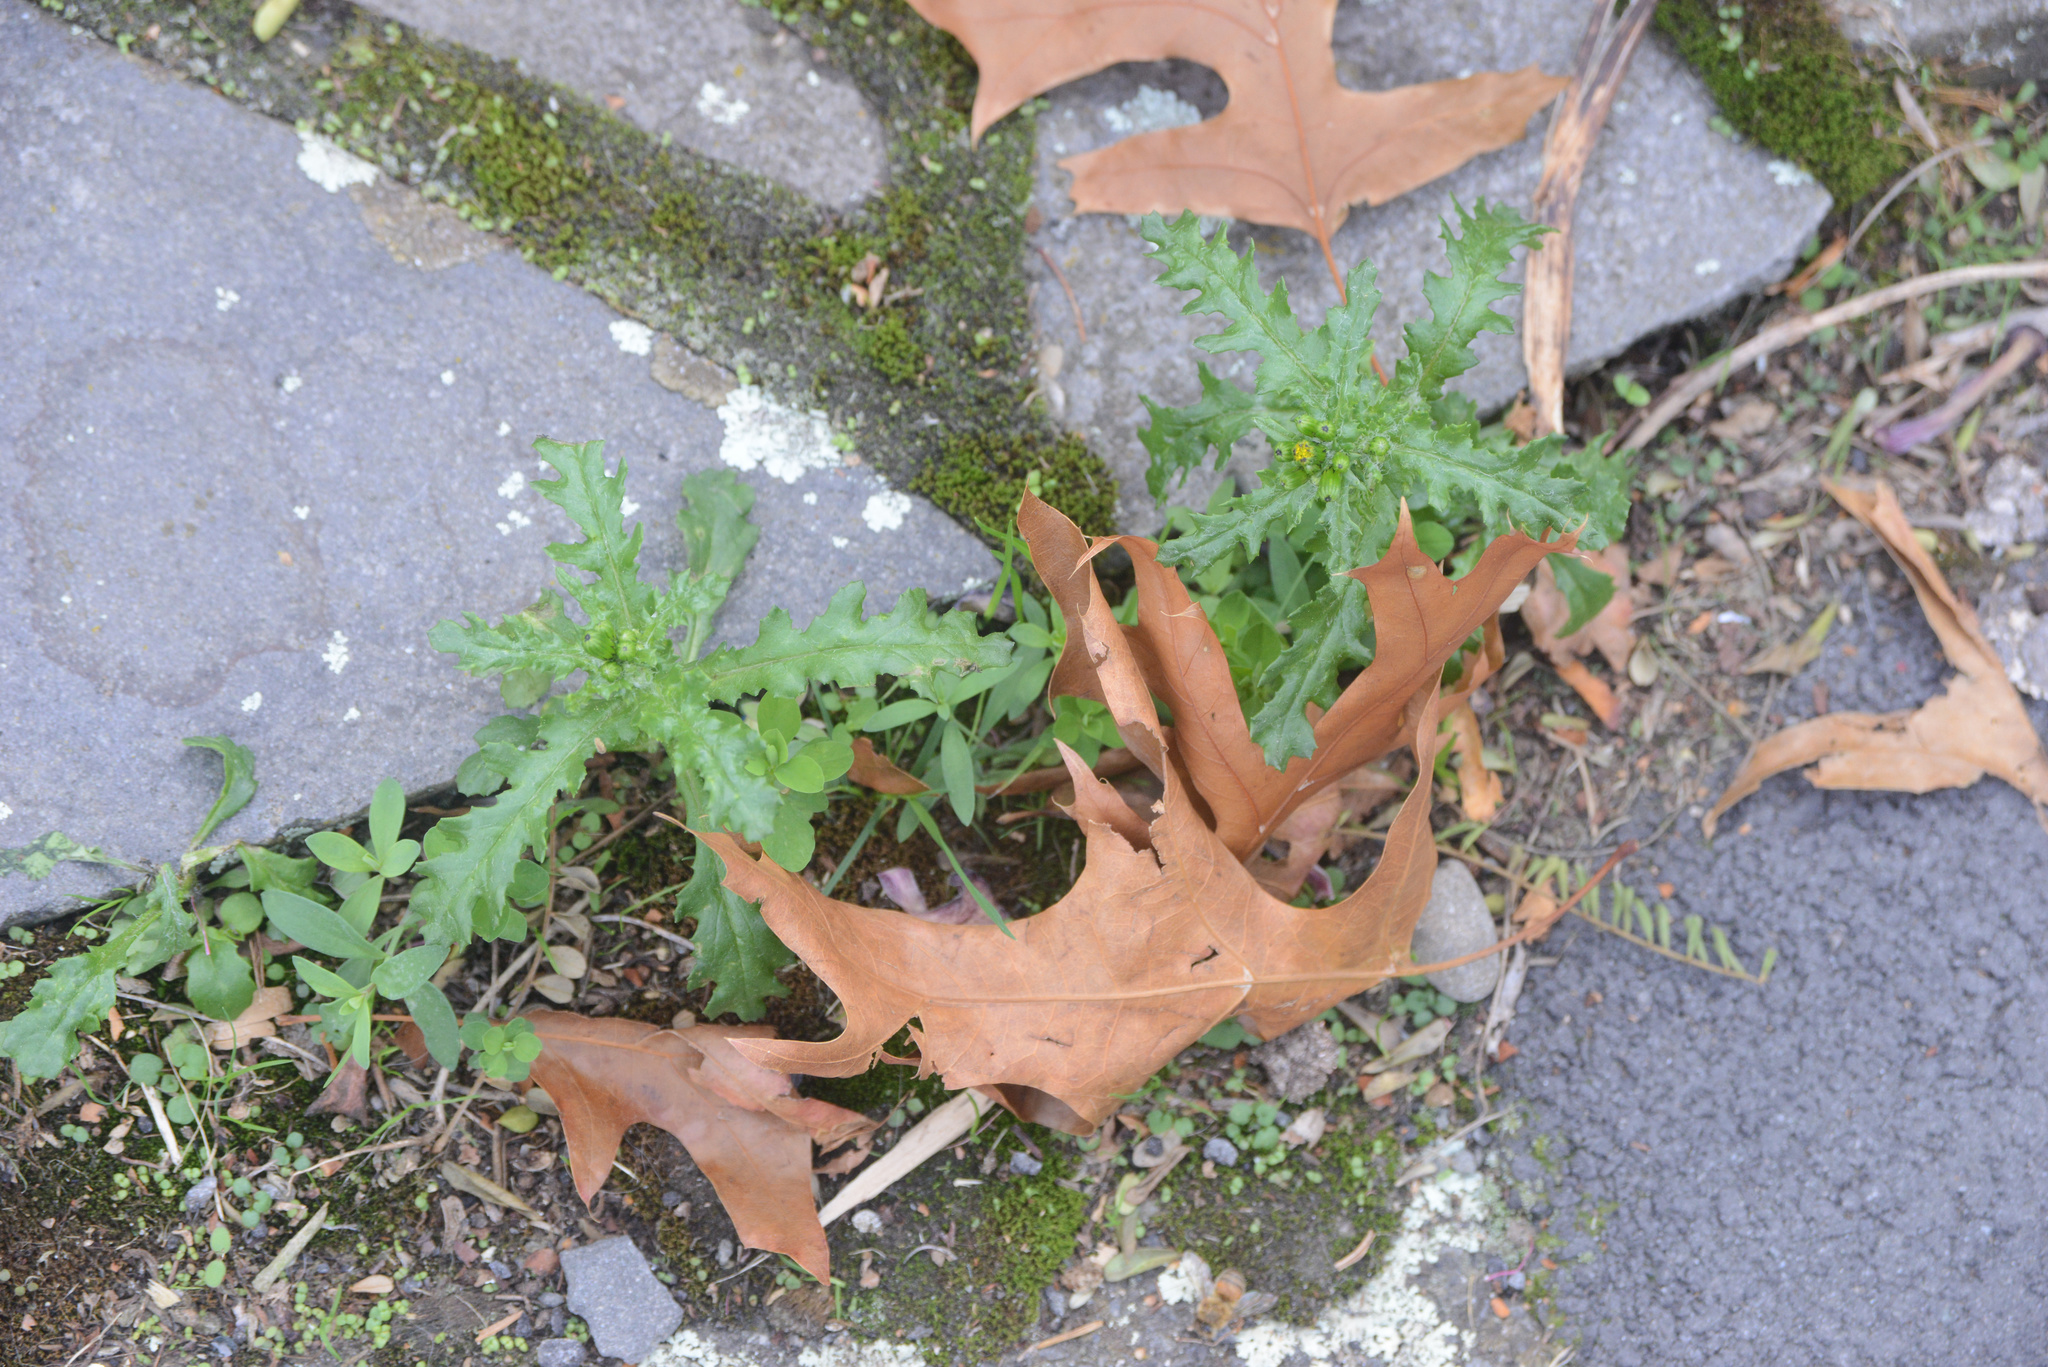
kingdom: Plantae
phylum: Tracheophyta
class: Magnoliopsida
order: Asterales
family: Asteraceae
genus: Senecio
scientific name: Senecio vulgaris
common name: Old-man-in-the-spring
